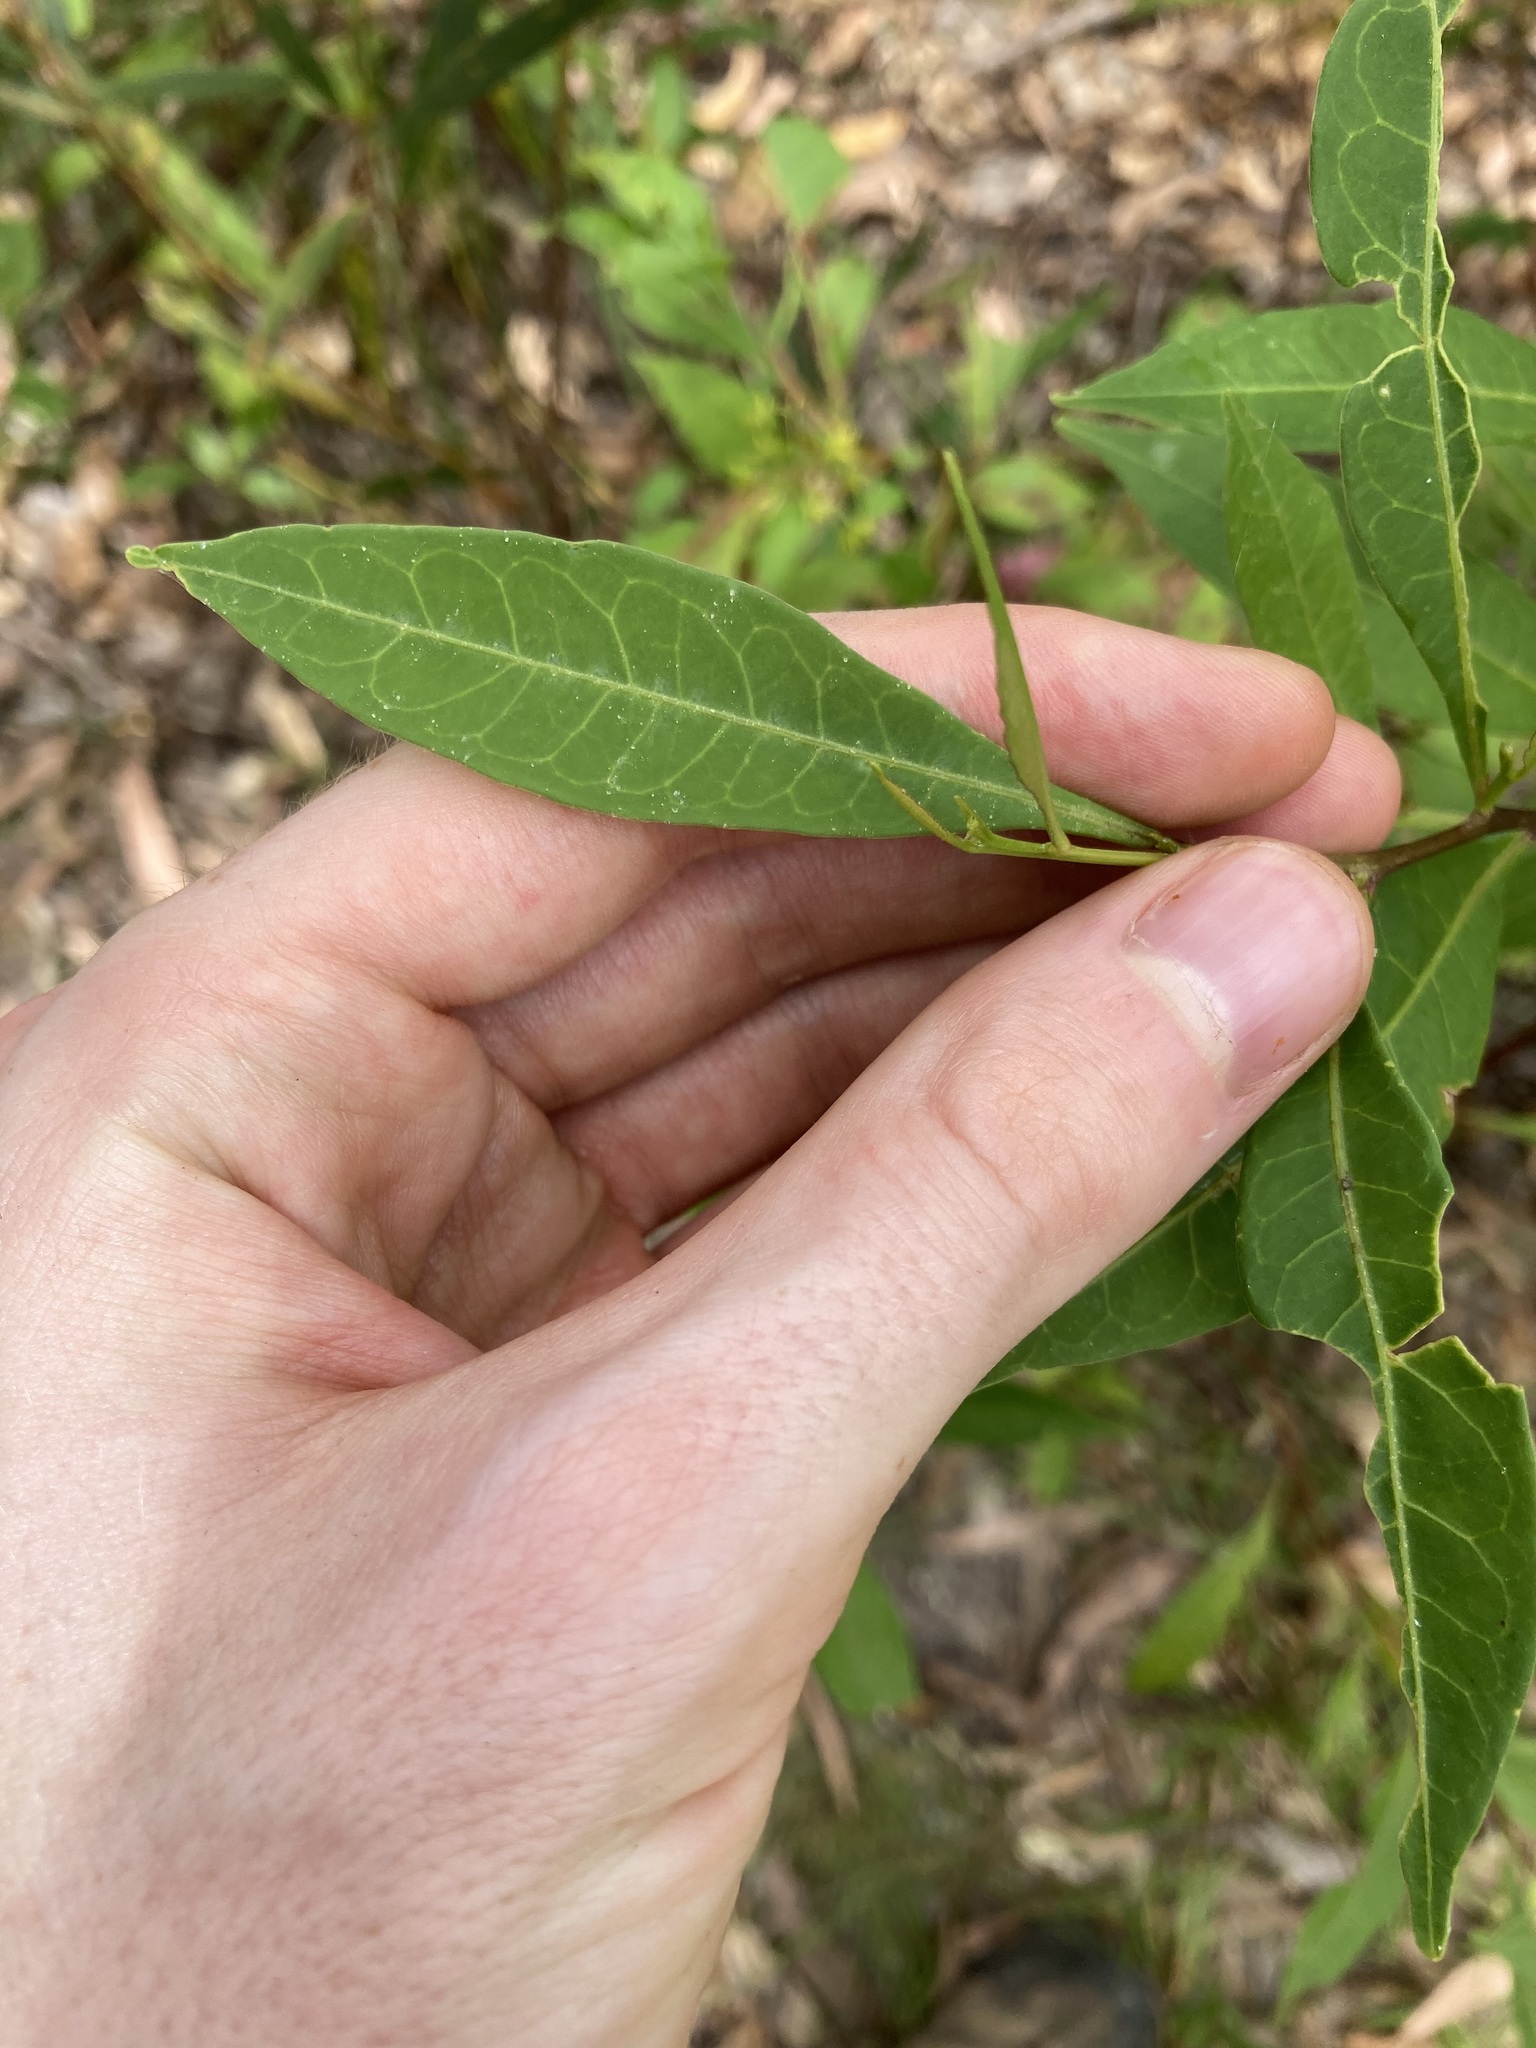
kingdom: Plantae
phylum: Tracheophyta
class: Magnoliopsida
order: Sapindales
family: Sapindaceae
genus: Dodonaea
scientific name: Dodonaea triquetra
